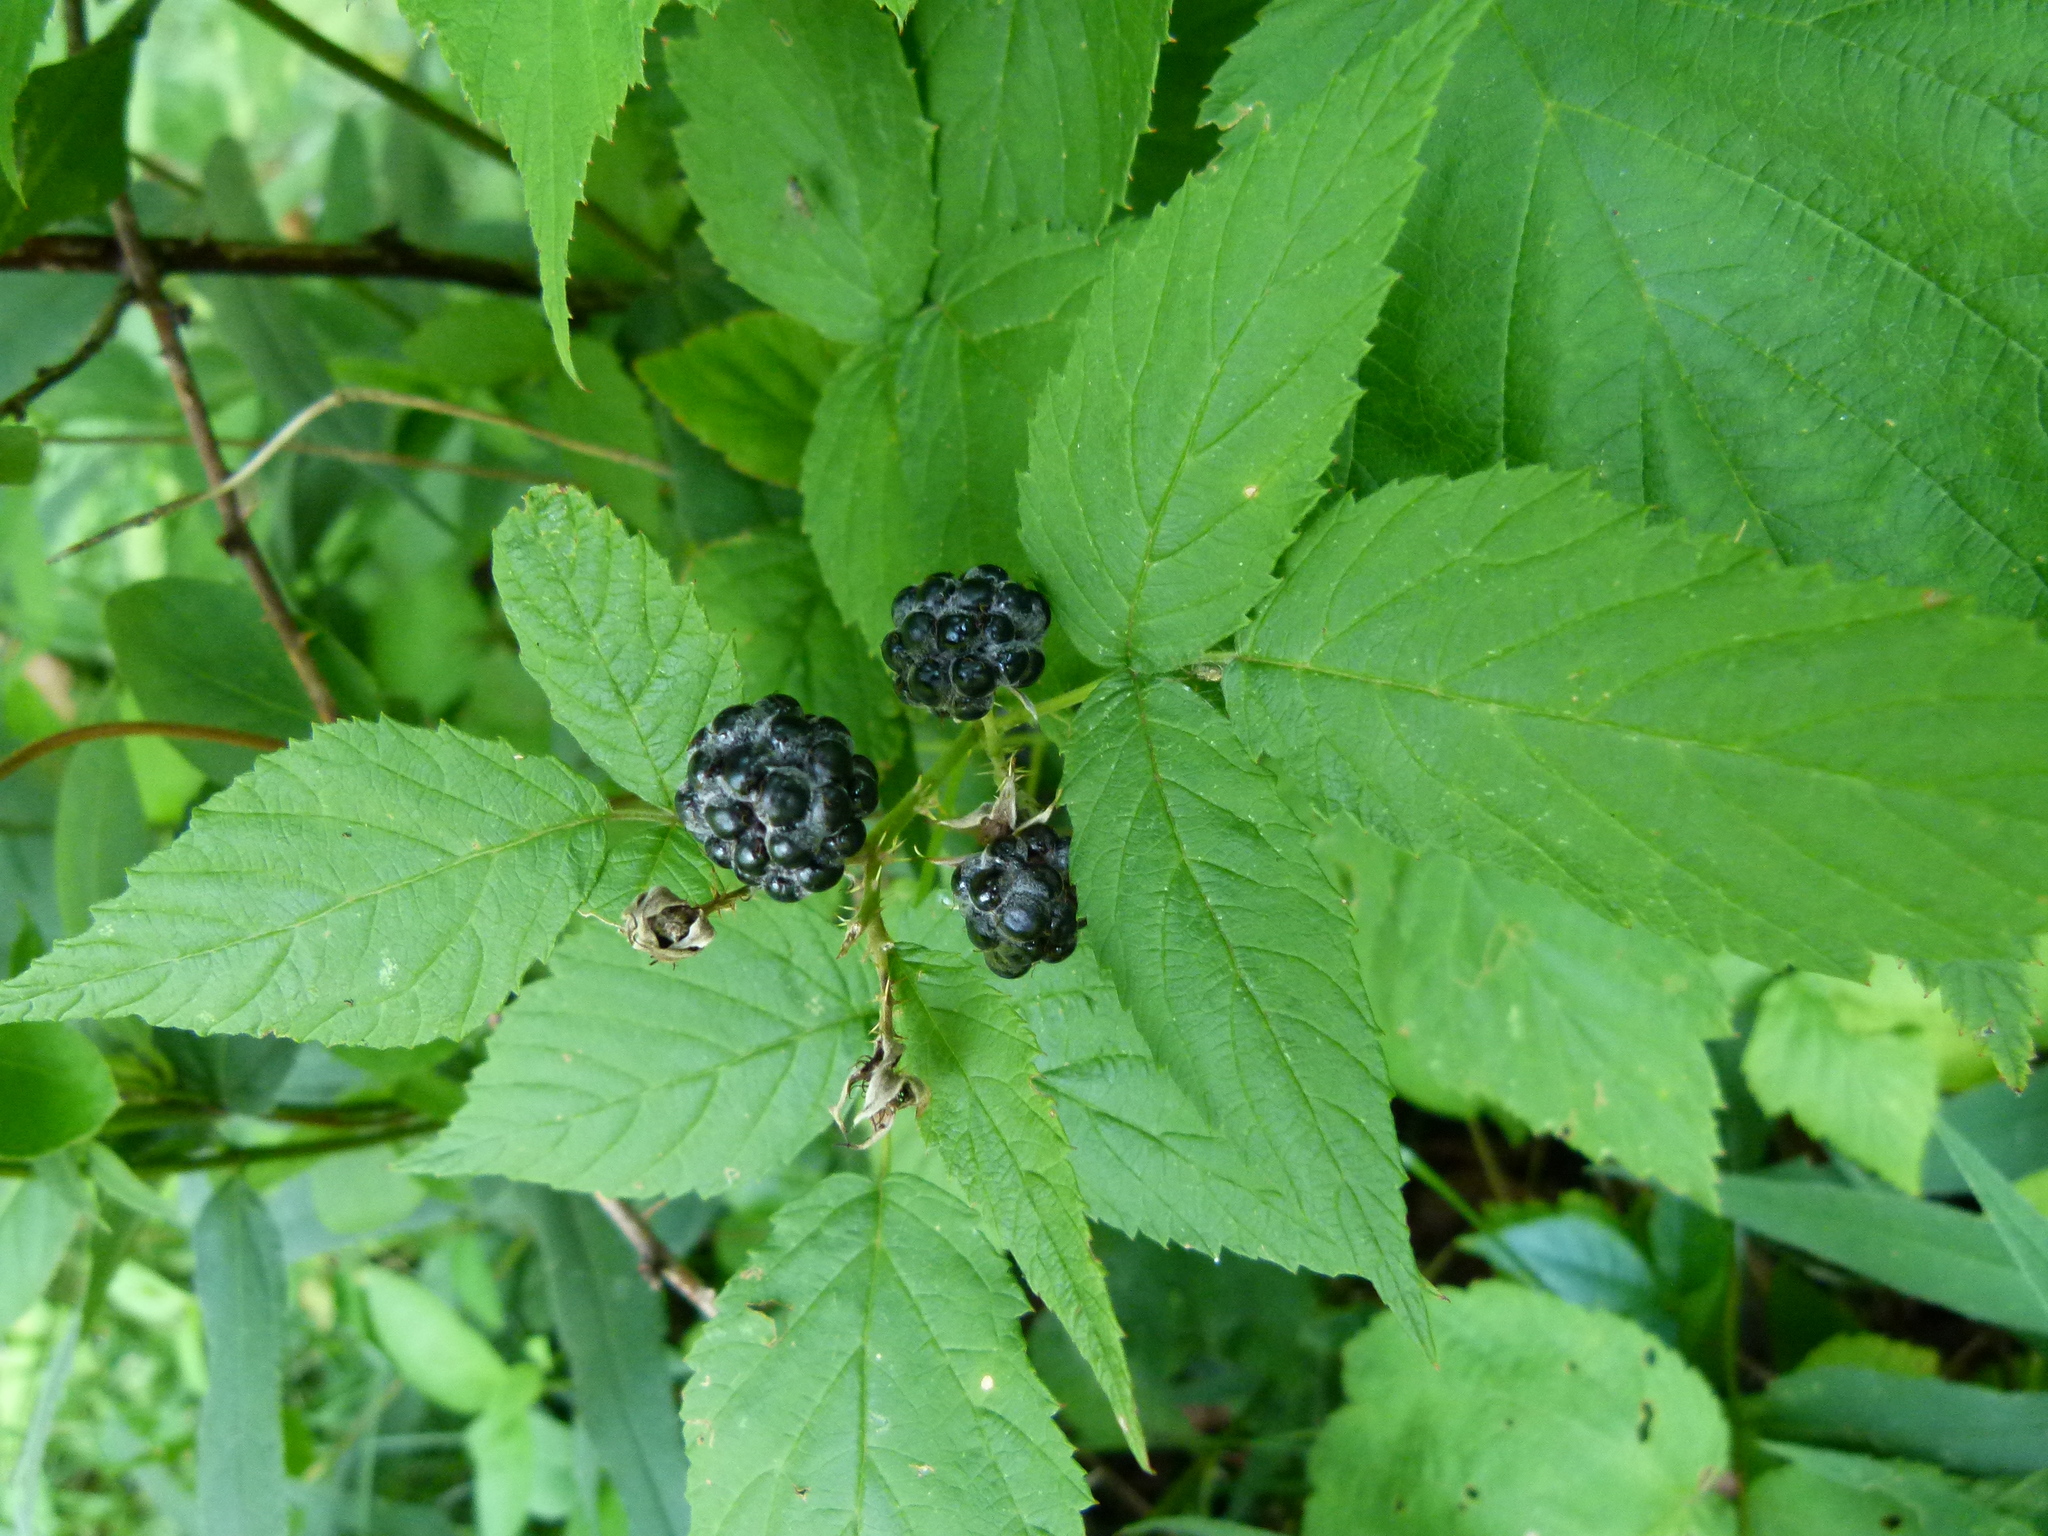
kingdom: Plantae
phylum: Tracheophyta
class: Magnoliopsida
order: Rosales
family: Rosaceae
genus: Rubus
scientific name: Rubus occidentalis
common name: Black raspberry
